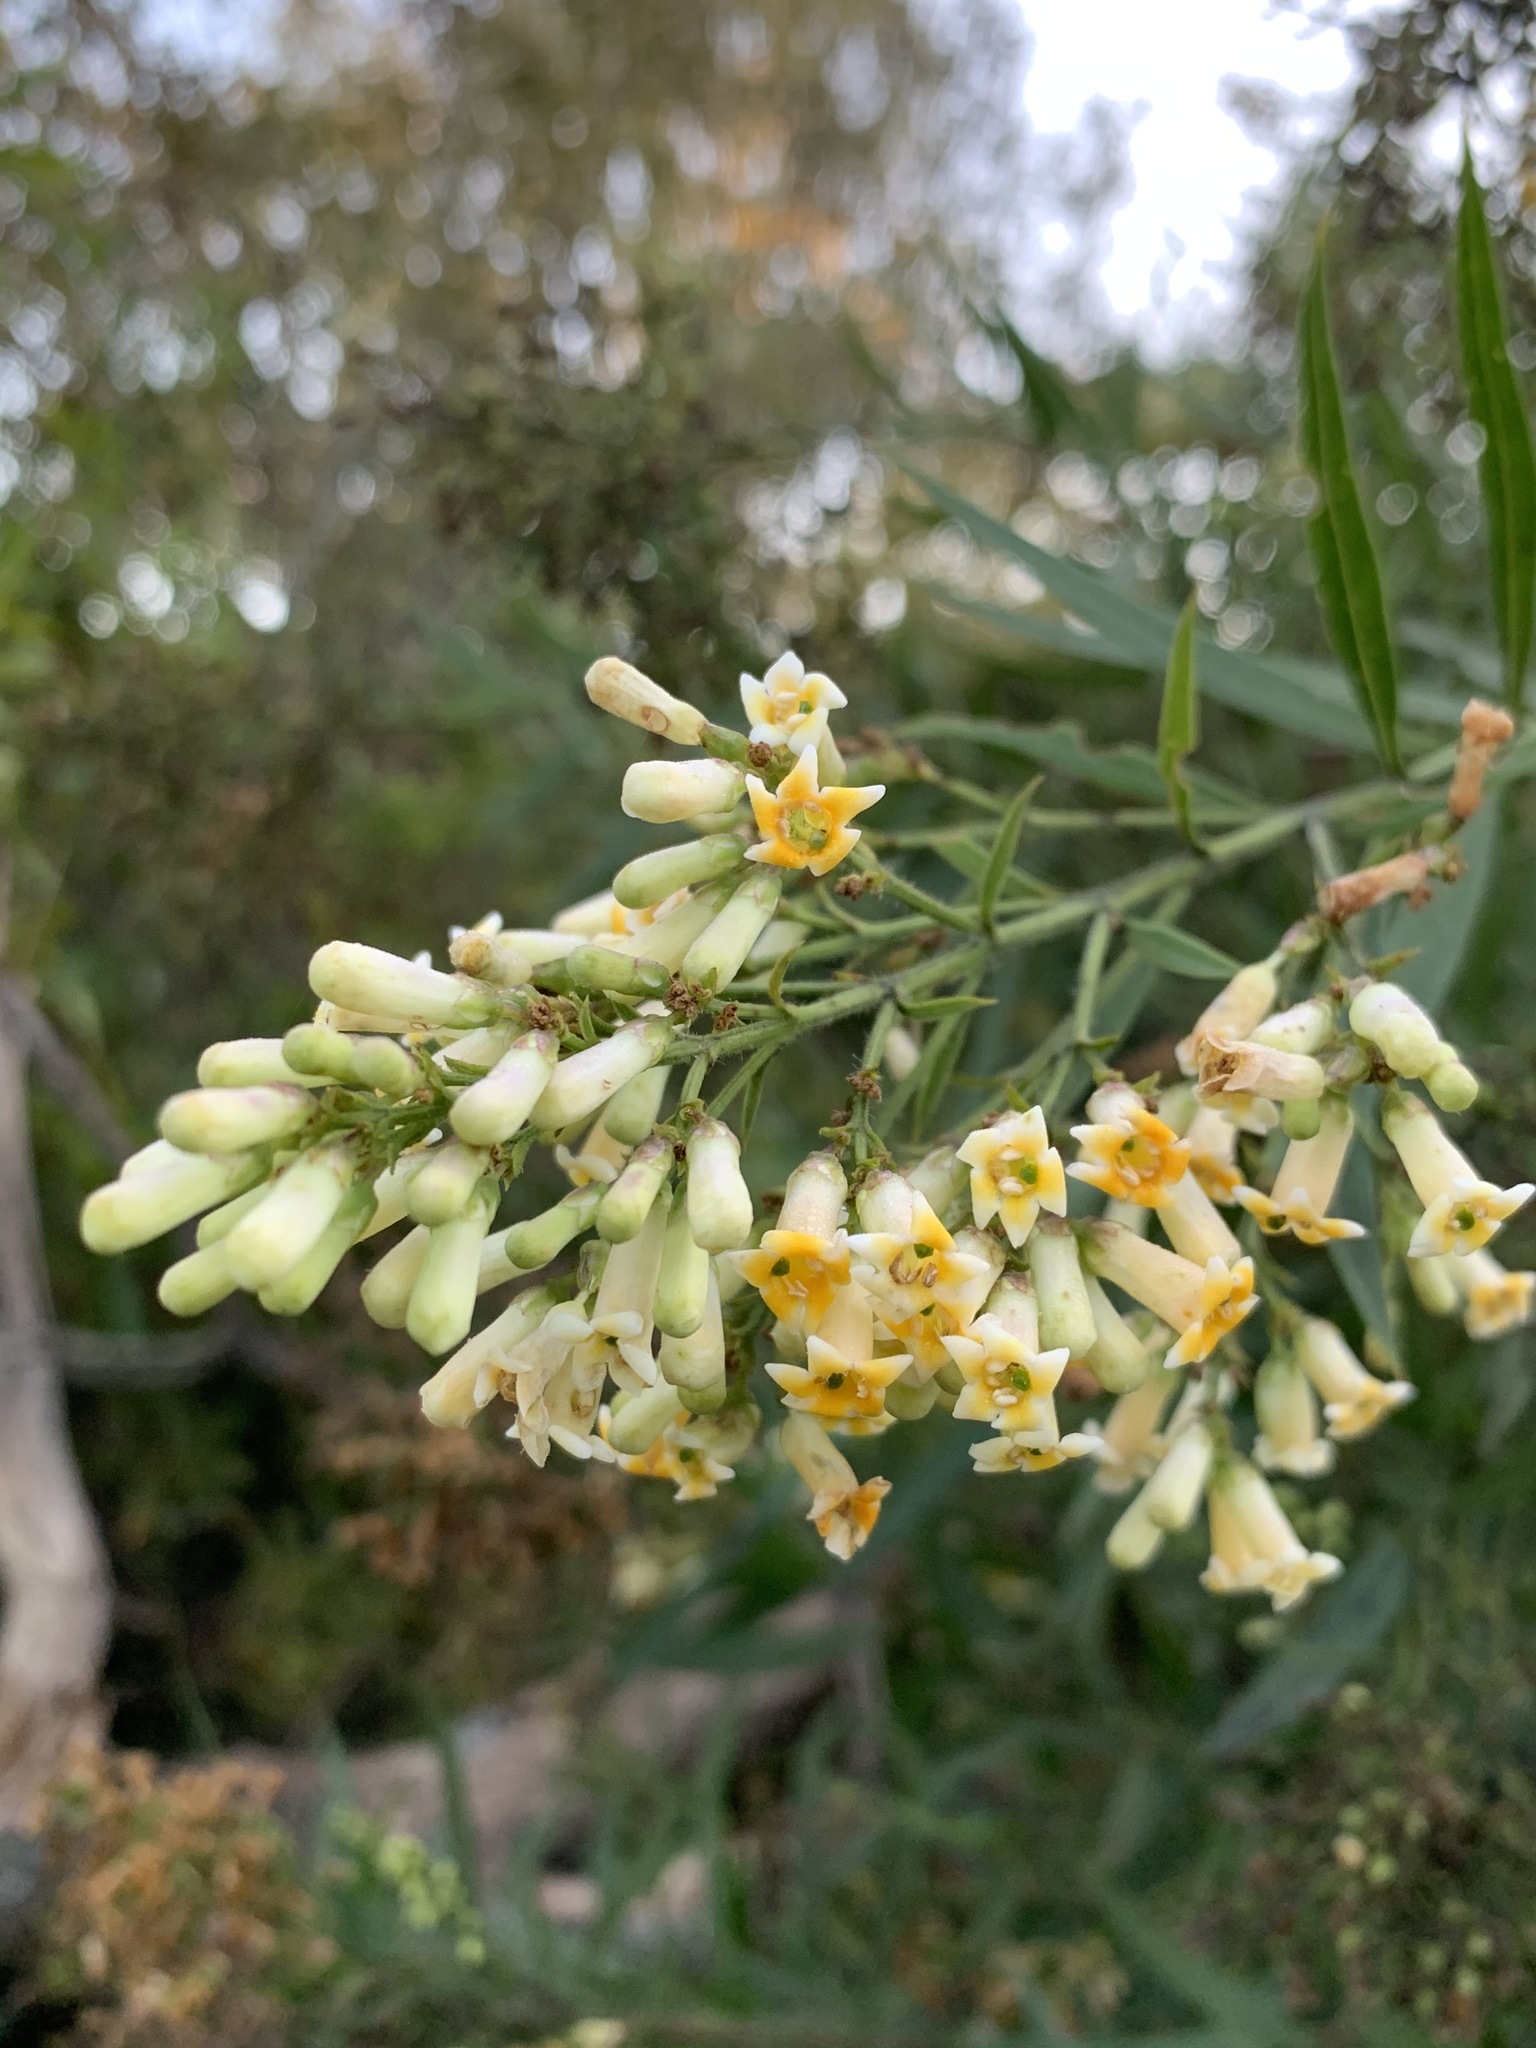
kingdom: Plantae
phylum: Tracheophyta
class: Magnoliopsida
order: Lamiales
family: Scrophulariaceae
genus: Freylinia
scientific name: Freylinia lanceolata
